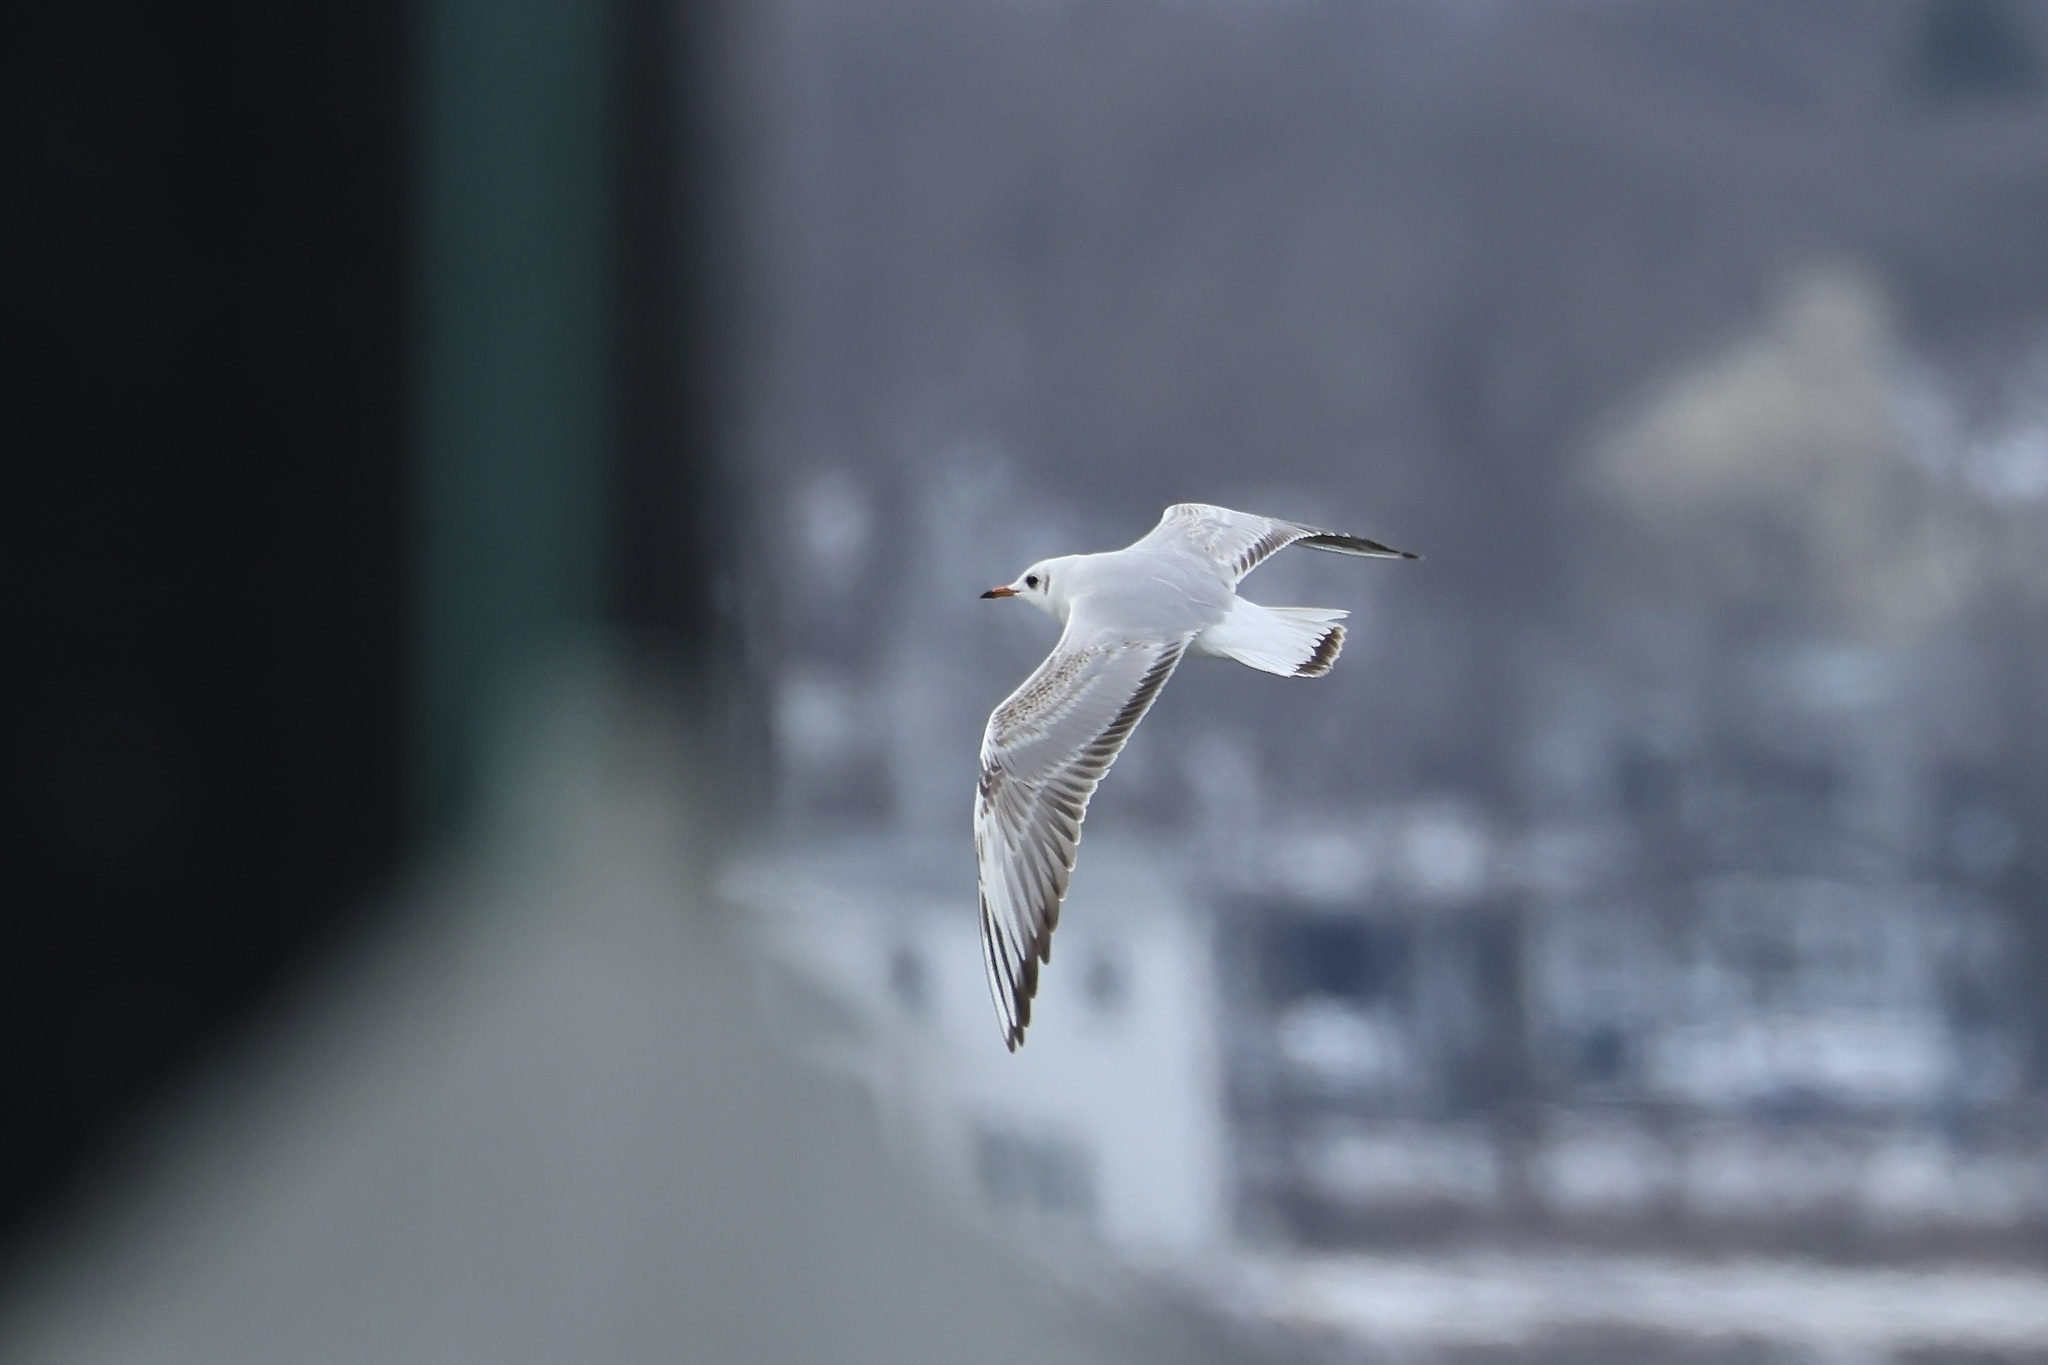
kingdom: Animalia
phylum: Chordata
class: Aves
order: Charadriiformes
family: Laridae
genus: Chroicocephalus
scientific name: Chroicocephalus ridibundus
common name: Black-headed gull
